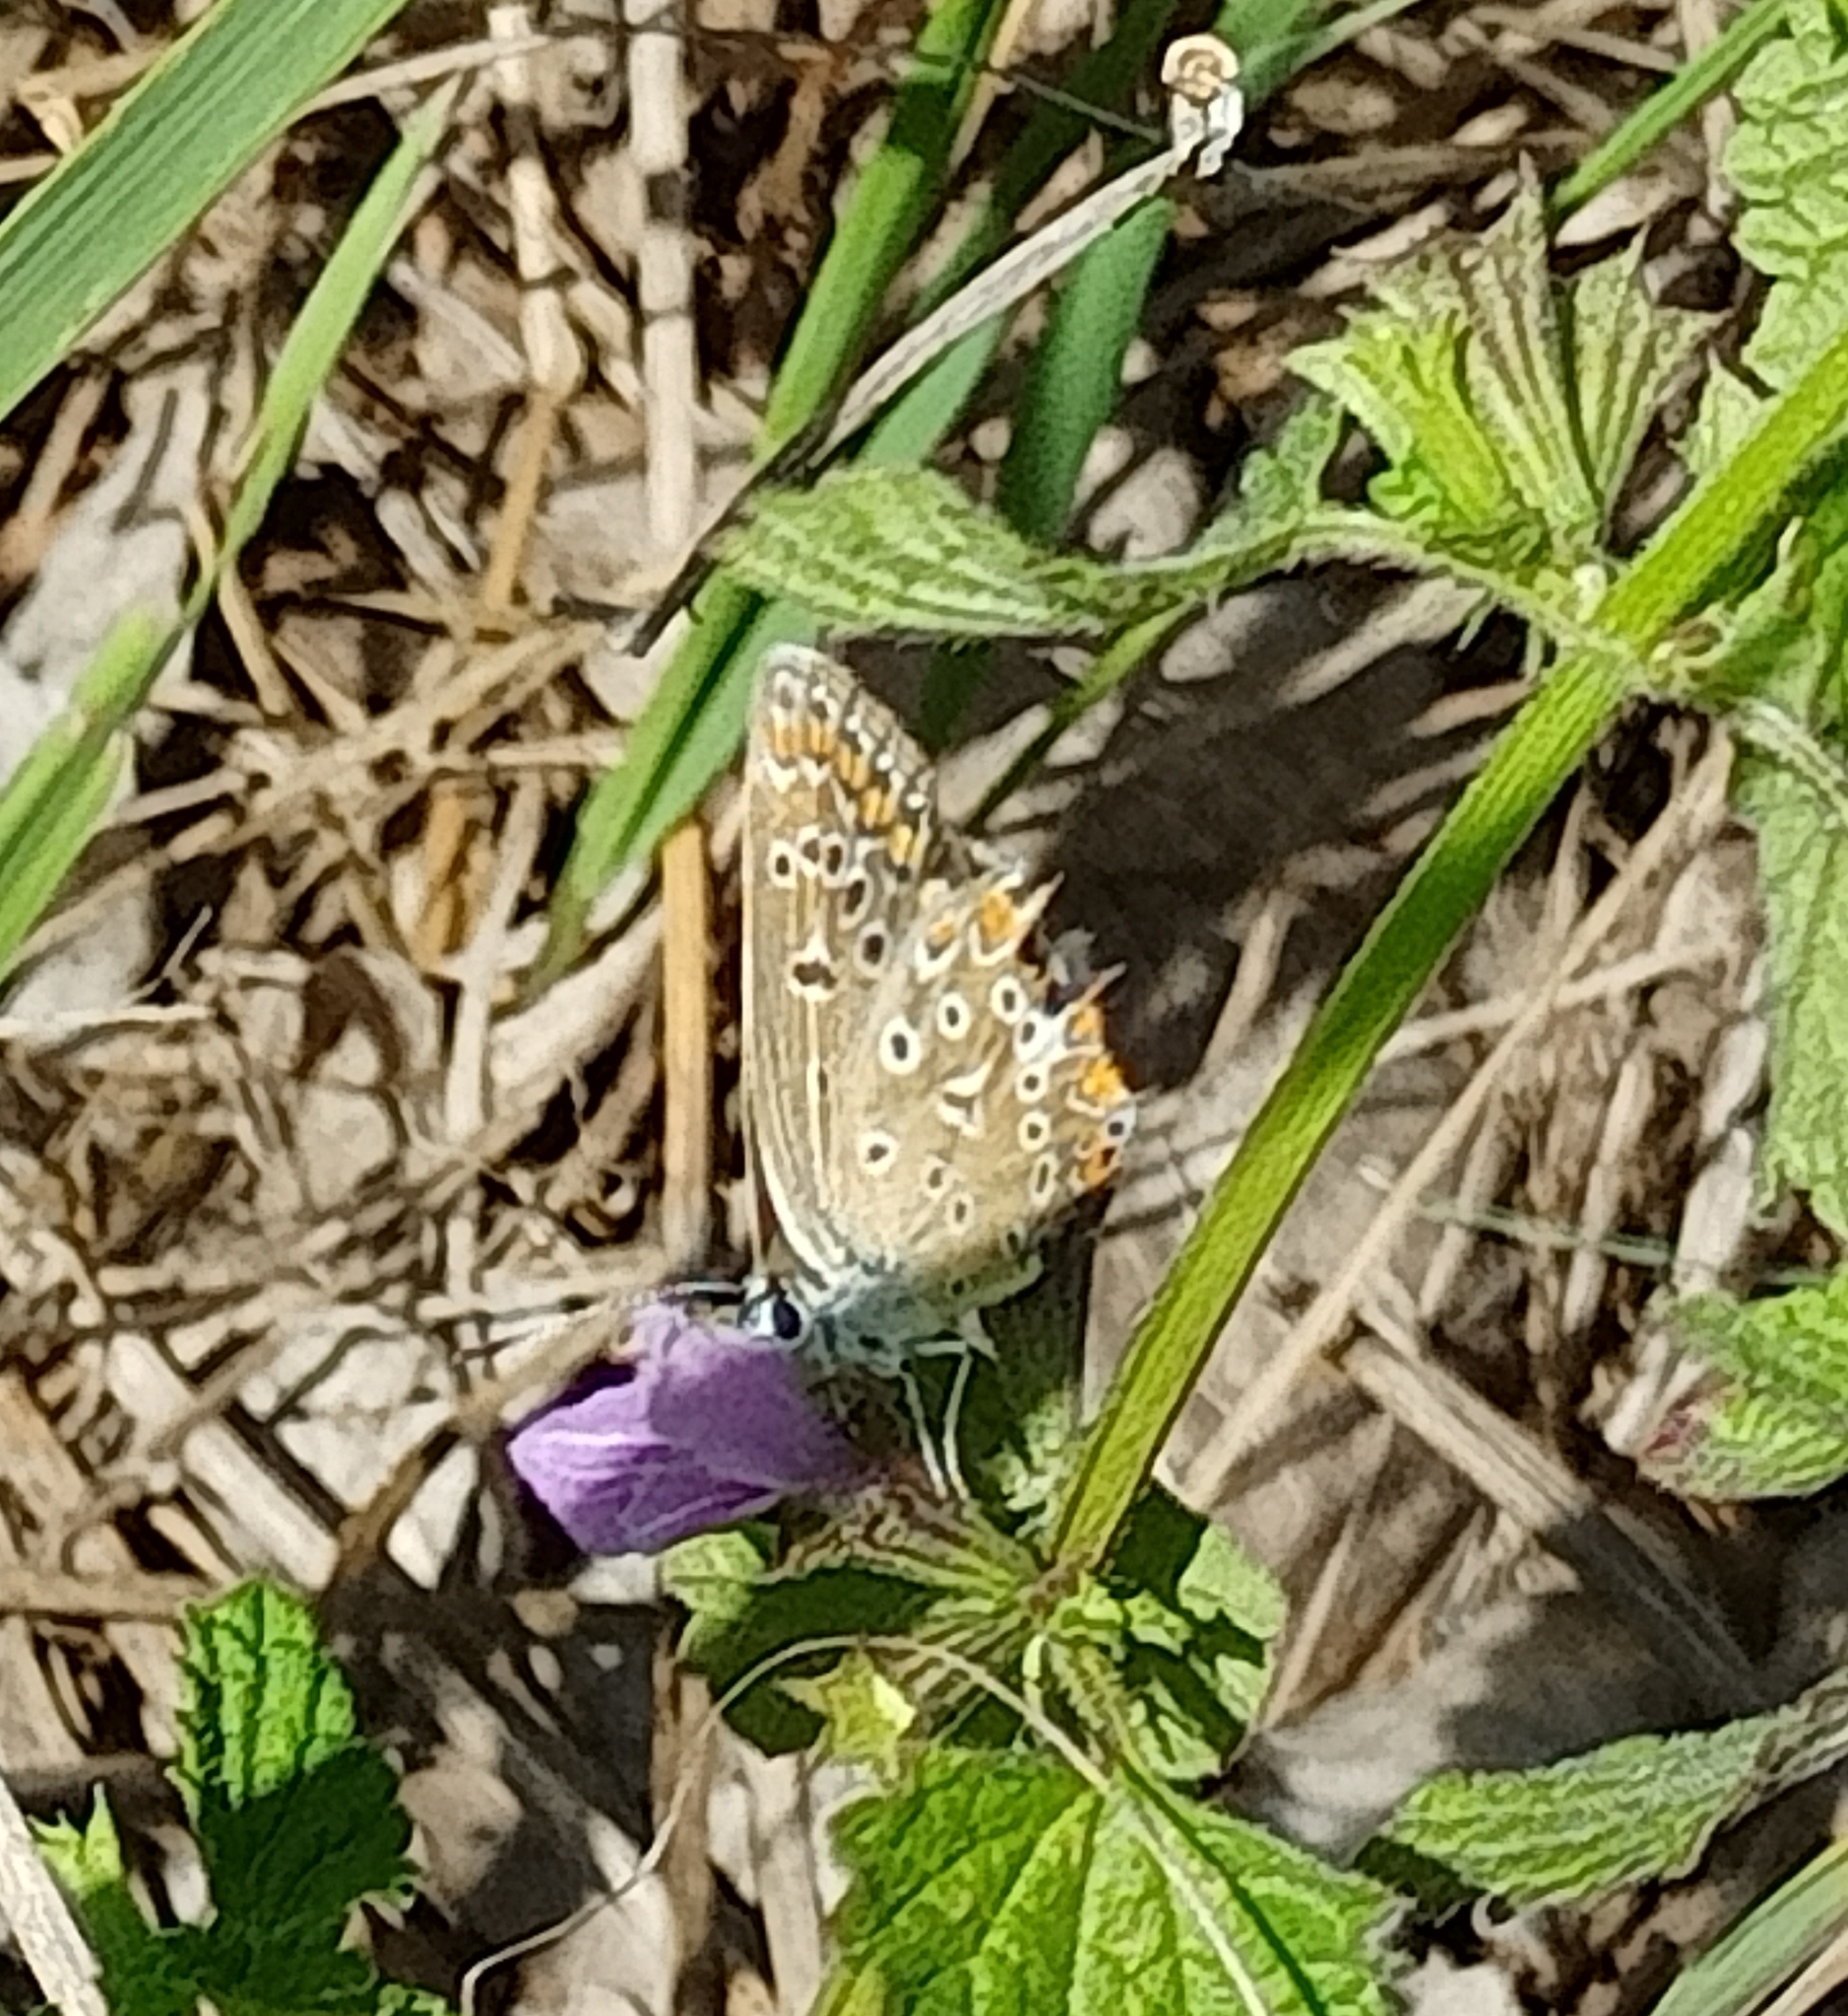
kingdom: Animalia
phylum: Arthropoda
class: Insecta
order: Lepidoptera
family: Lycaenidae
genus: Polyommatus
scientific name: Polyommatus icarus
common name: Common blue
